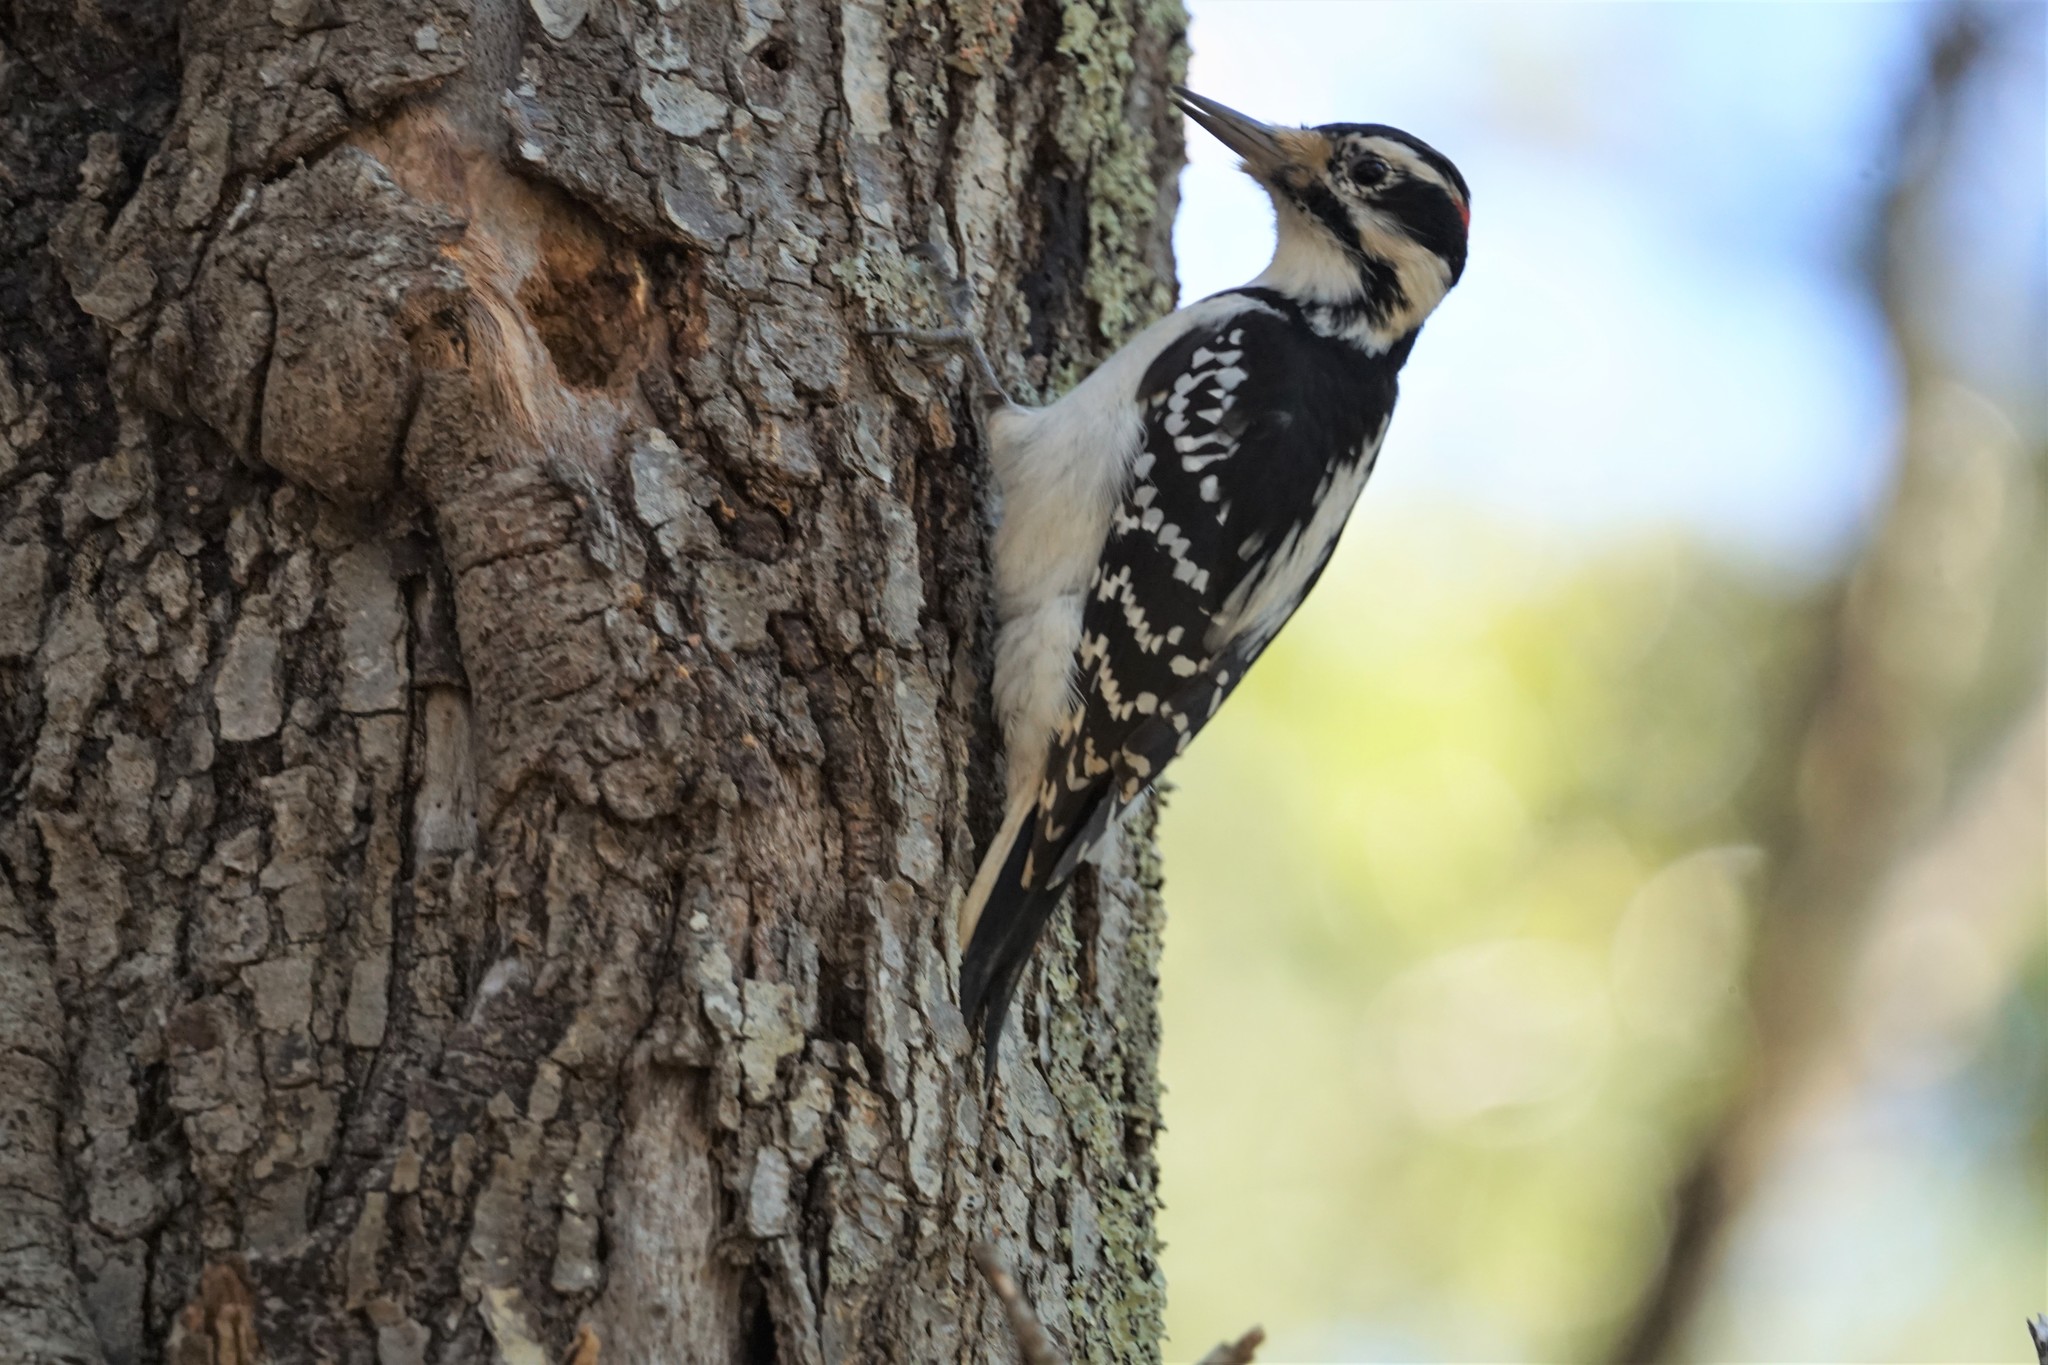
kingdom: Animalia
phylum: Chordata
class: Aves
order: Piciformes
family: Picidae
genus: Leuconotopicus
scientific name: Leuconotopicus villosus
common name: Hairy woodpecker
